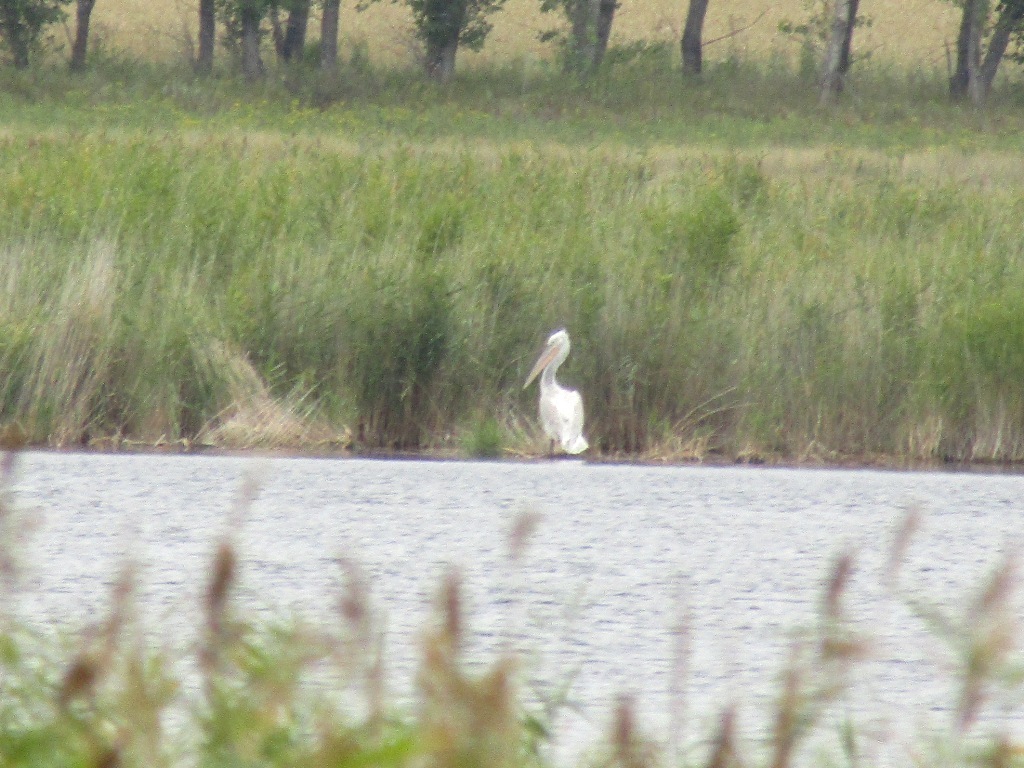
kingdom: Animalia
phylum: Chordata
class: Aves
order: Pelecaniformes
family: Pelecanidae
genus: Pelecanus
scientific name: Pelecanus crispus
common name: Dalmatian pelican
